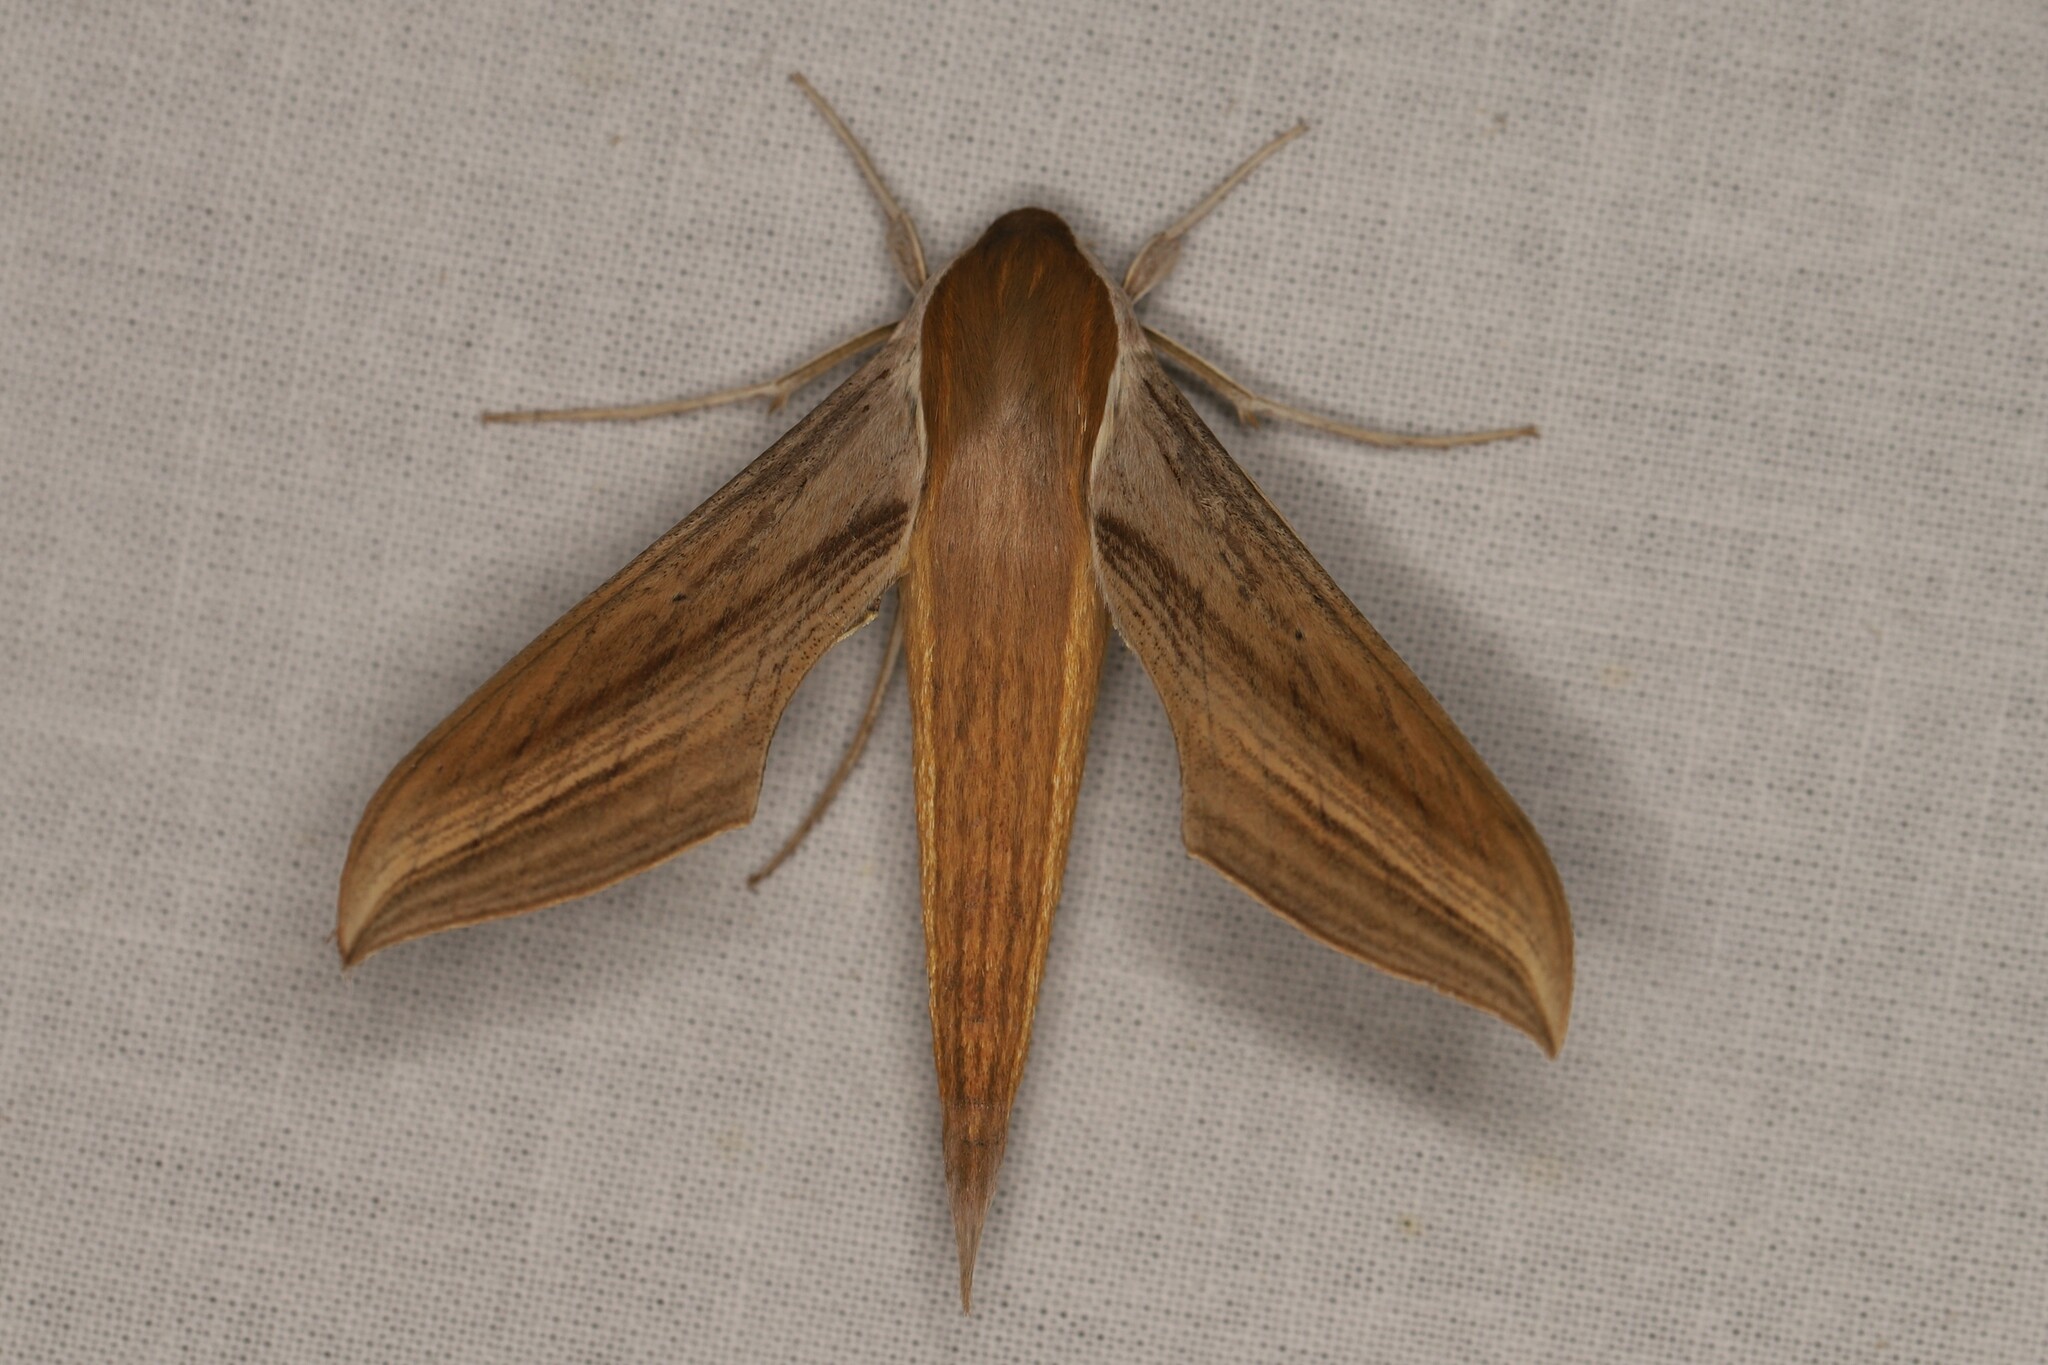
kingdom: Animalia
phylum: Arthropoda
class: Insecta
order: Lepidoptera
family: Sphingidae
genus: Xylophanes
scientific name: Xylophanes tersa
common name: Tersa sphinx
